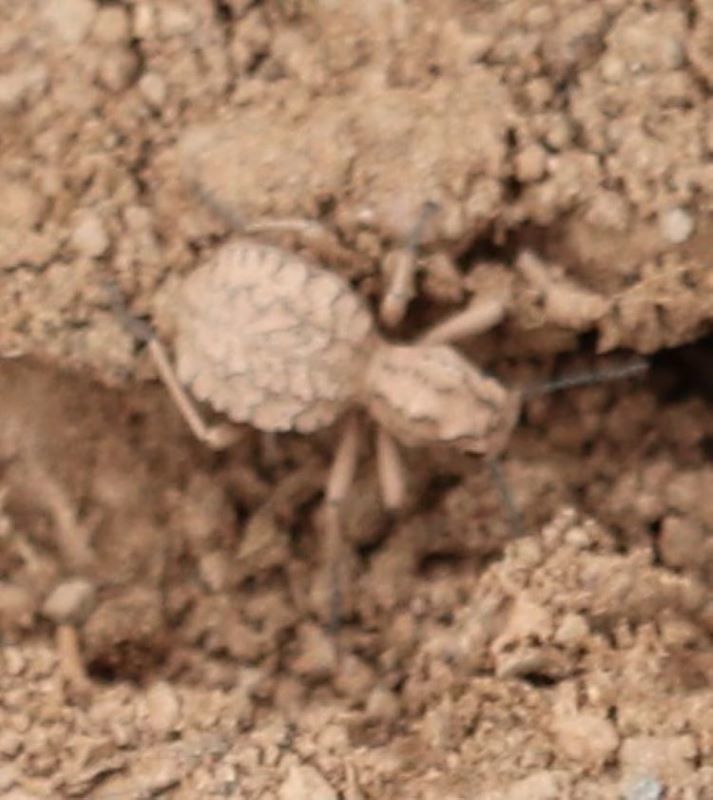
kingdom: Animalia
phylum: Arthropoda
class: Insecta
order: Coleoptera
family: Tenebrionidae
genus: Cyrtoderes
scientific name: Cyrtoderes cristatus
